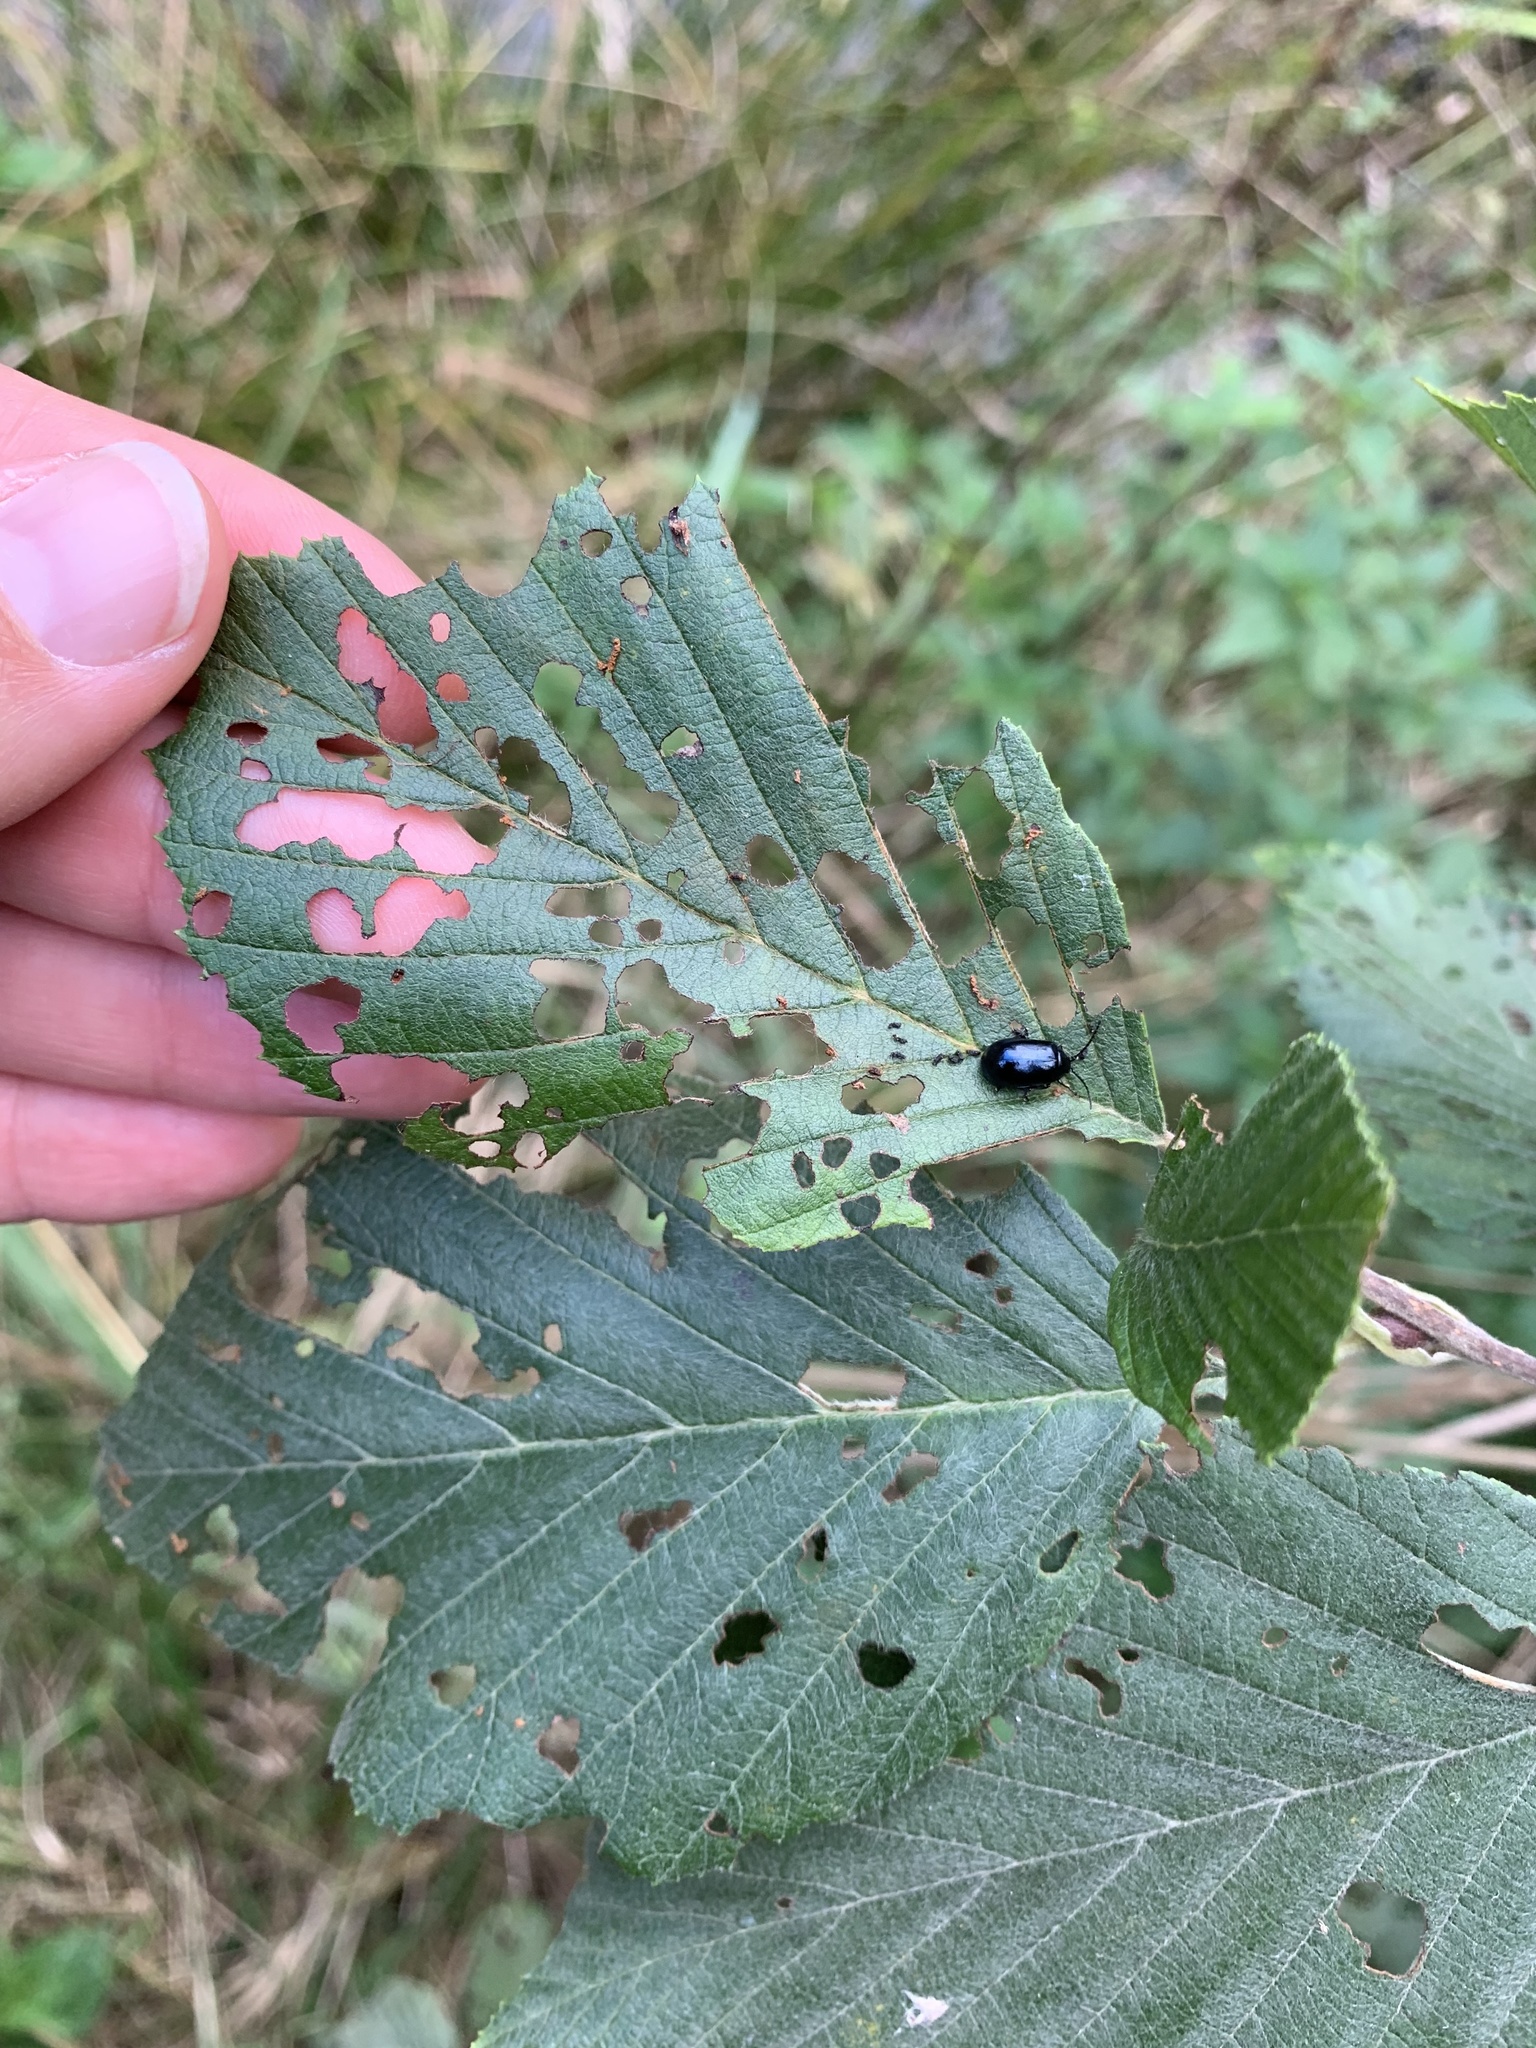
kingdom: Animalia
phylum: Arthropoda
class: Insecta
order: Coleoptera
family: Chrysomelidae
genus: Agelastica
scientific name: Agelastica alni
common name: Alder leaf beetle
